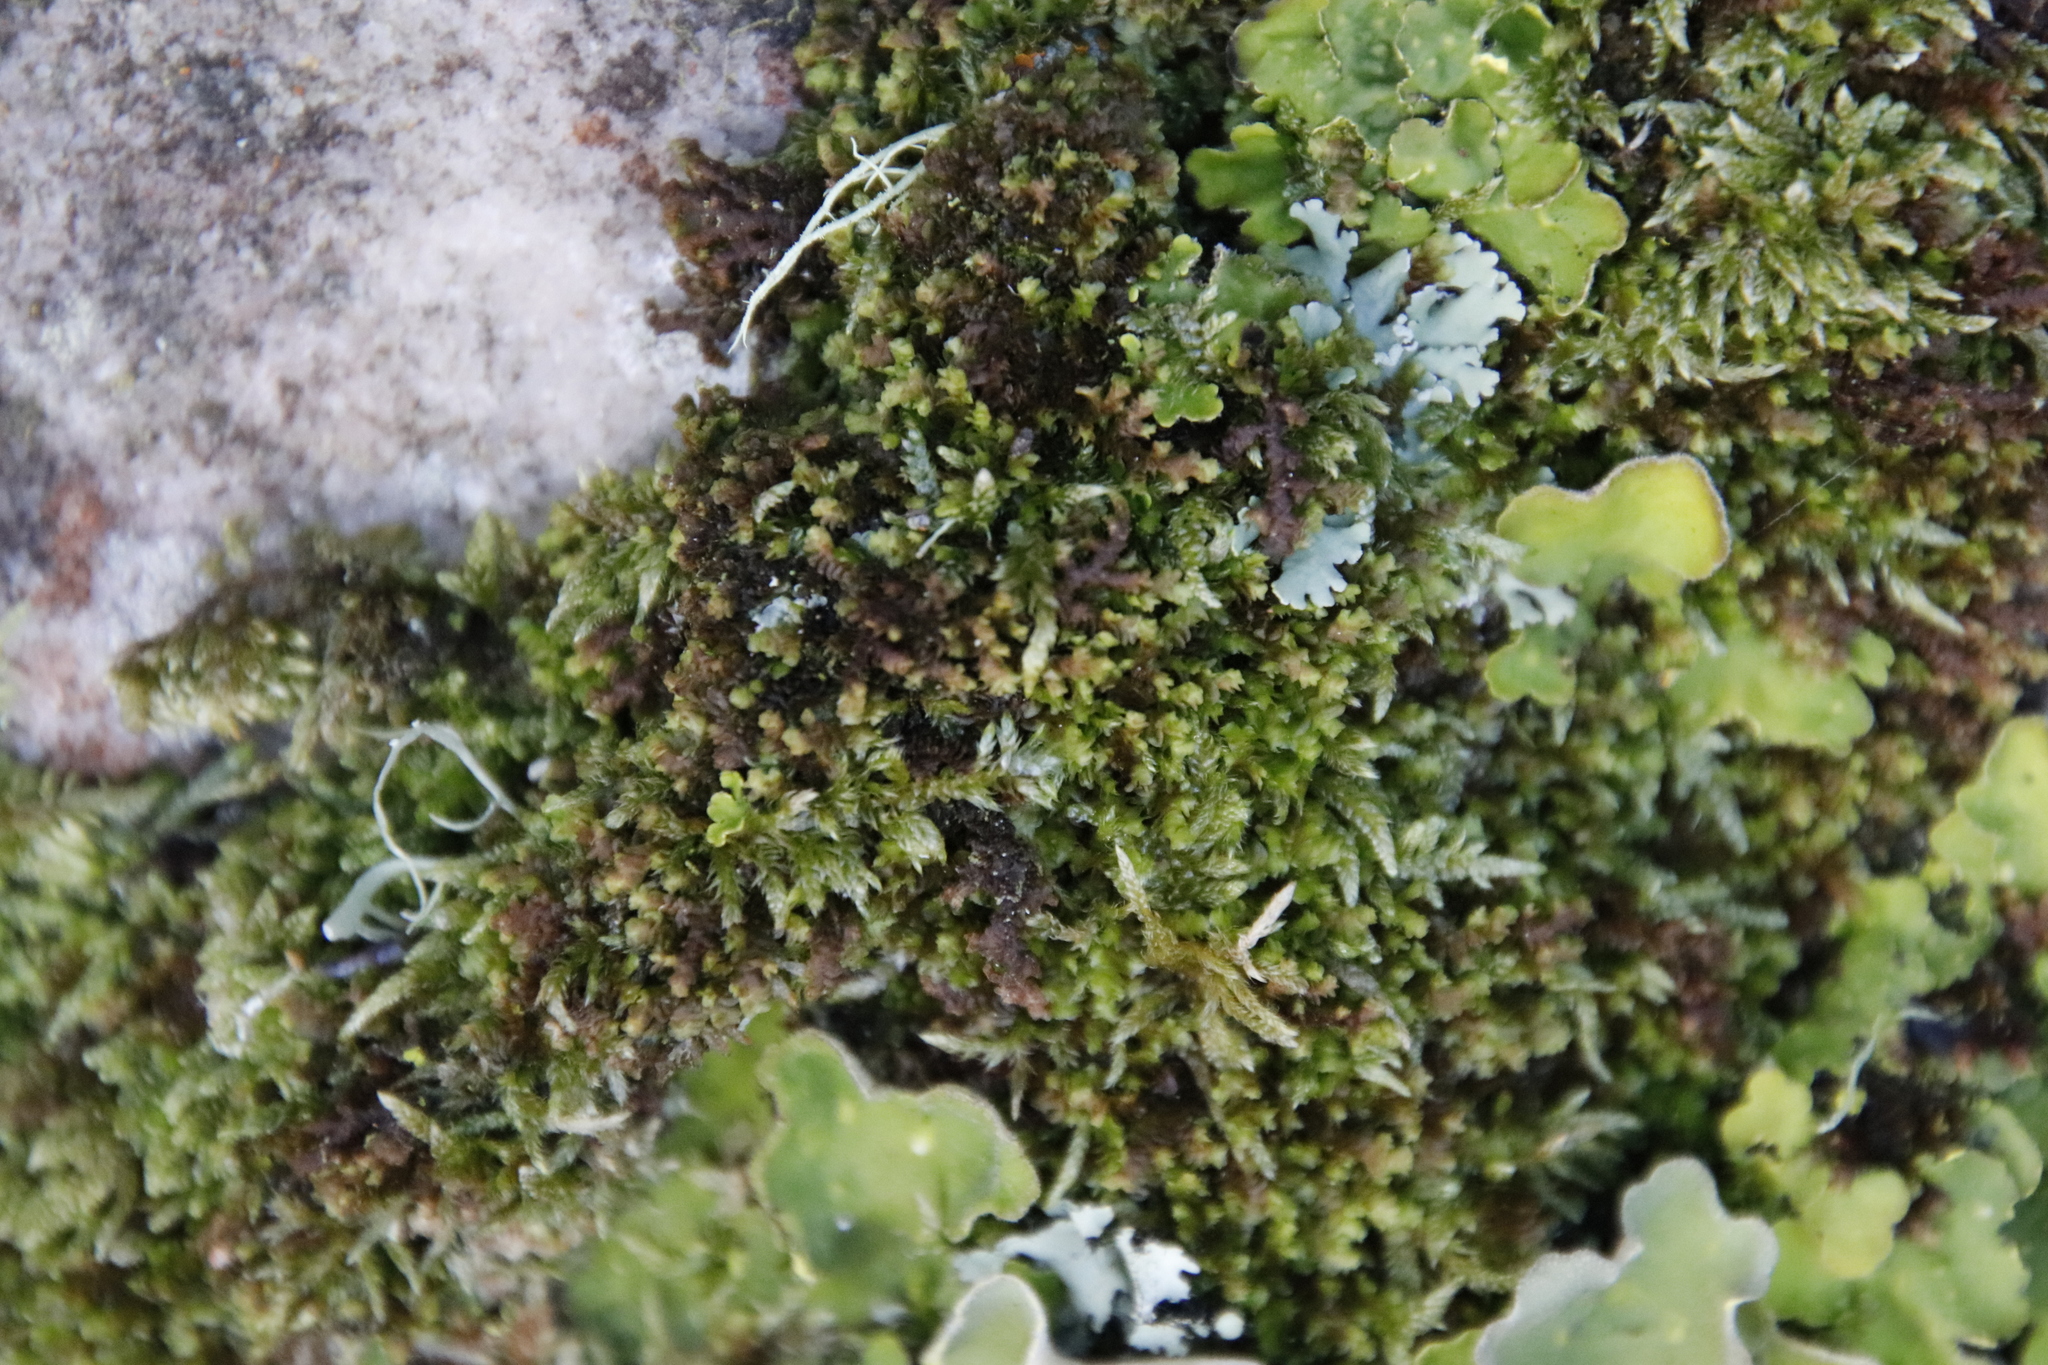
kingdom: Fungi
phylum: Ascomycota
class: Lecanoromycetes
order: Peltigerales
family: Lobariaceae
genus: Pseudocyphellaria
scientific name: Pseudocyphellaria aurata
